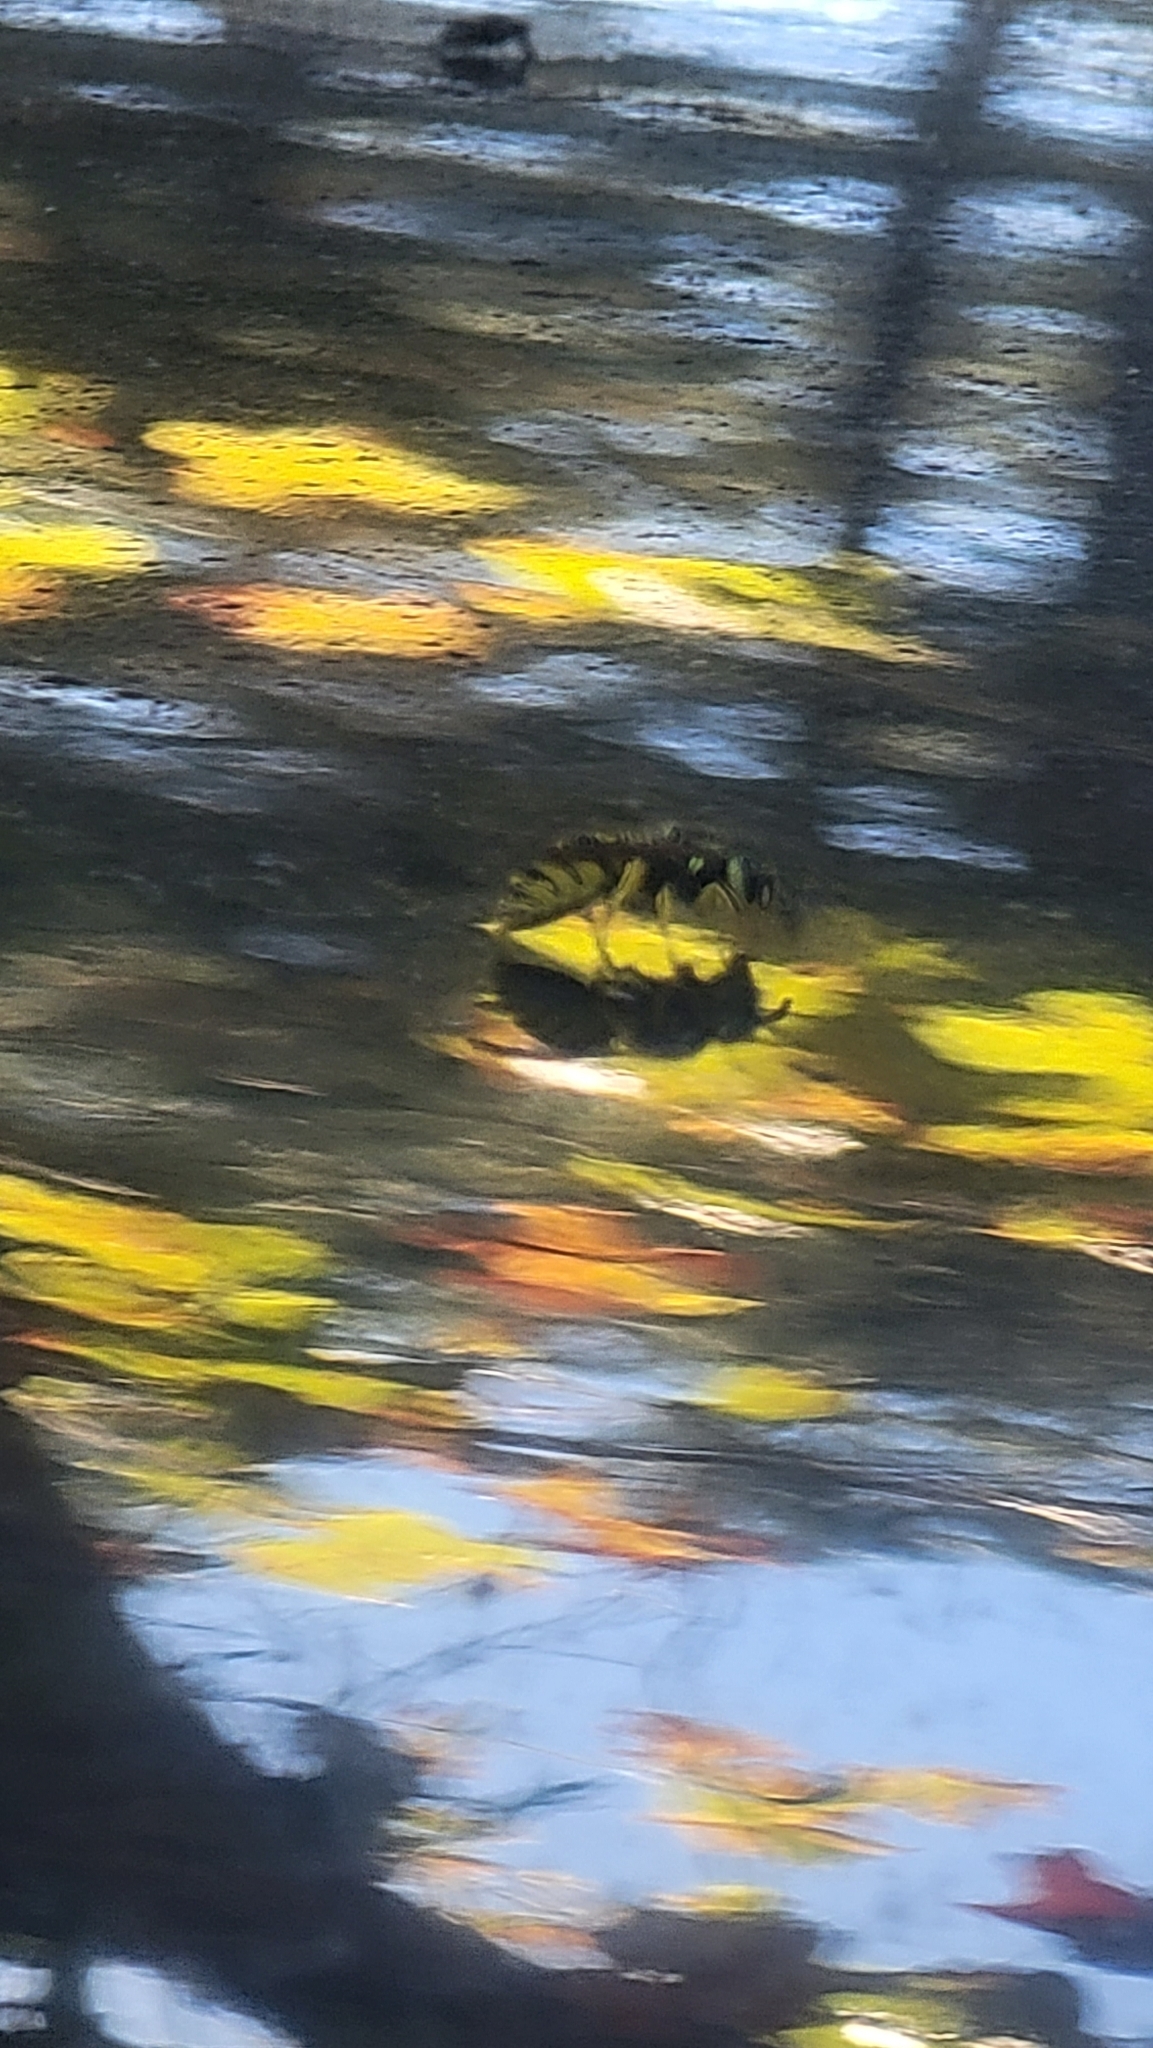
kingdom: Animalia
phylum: Arthropoda
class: Insecta
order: Hymenoptera
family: Vespidae
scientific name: Vespidae
